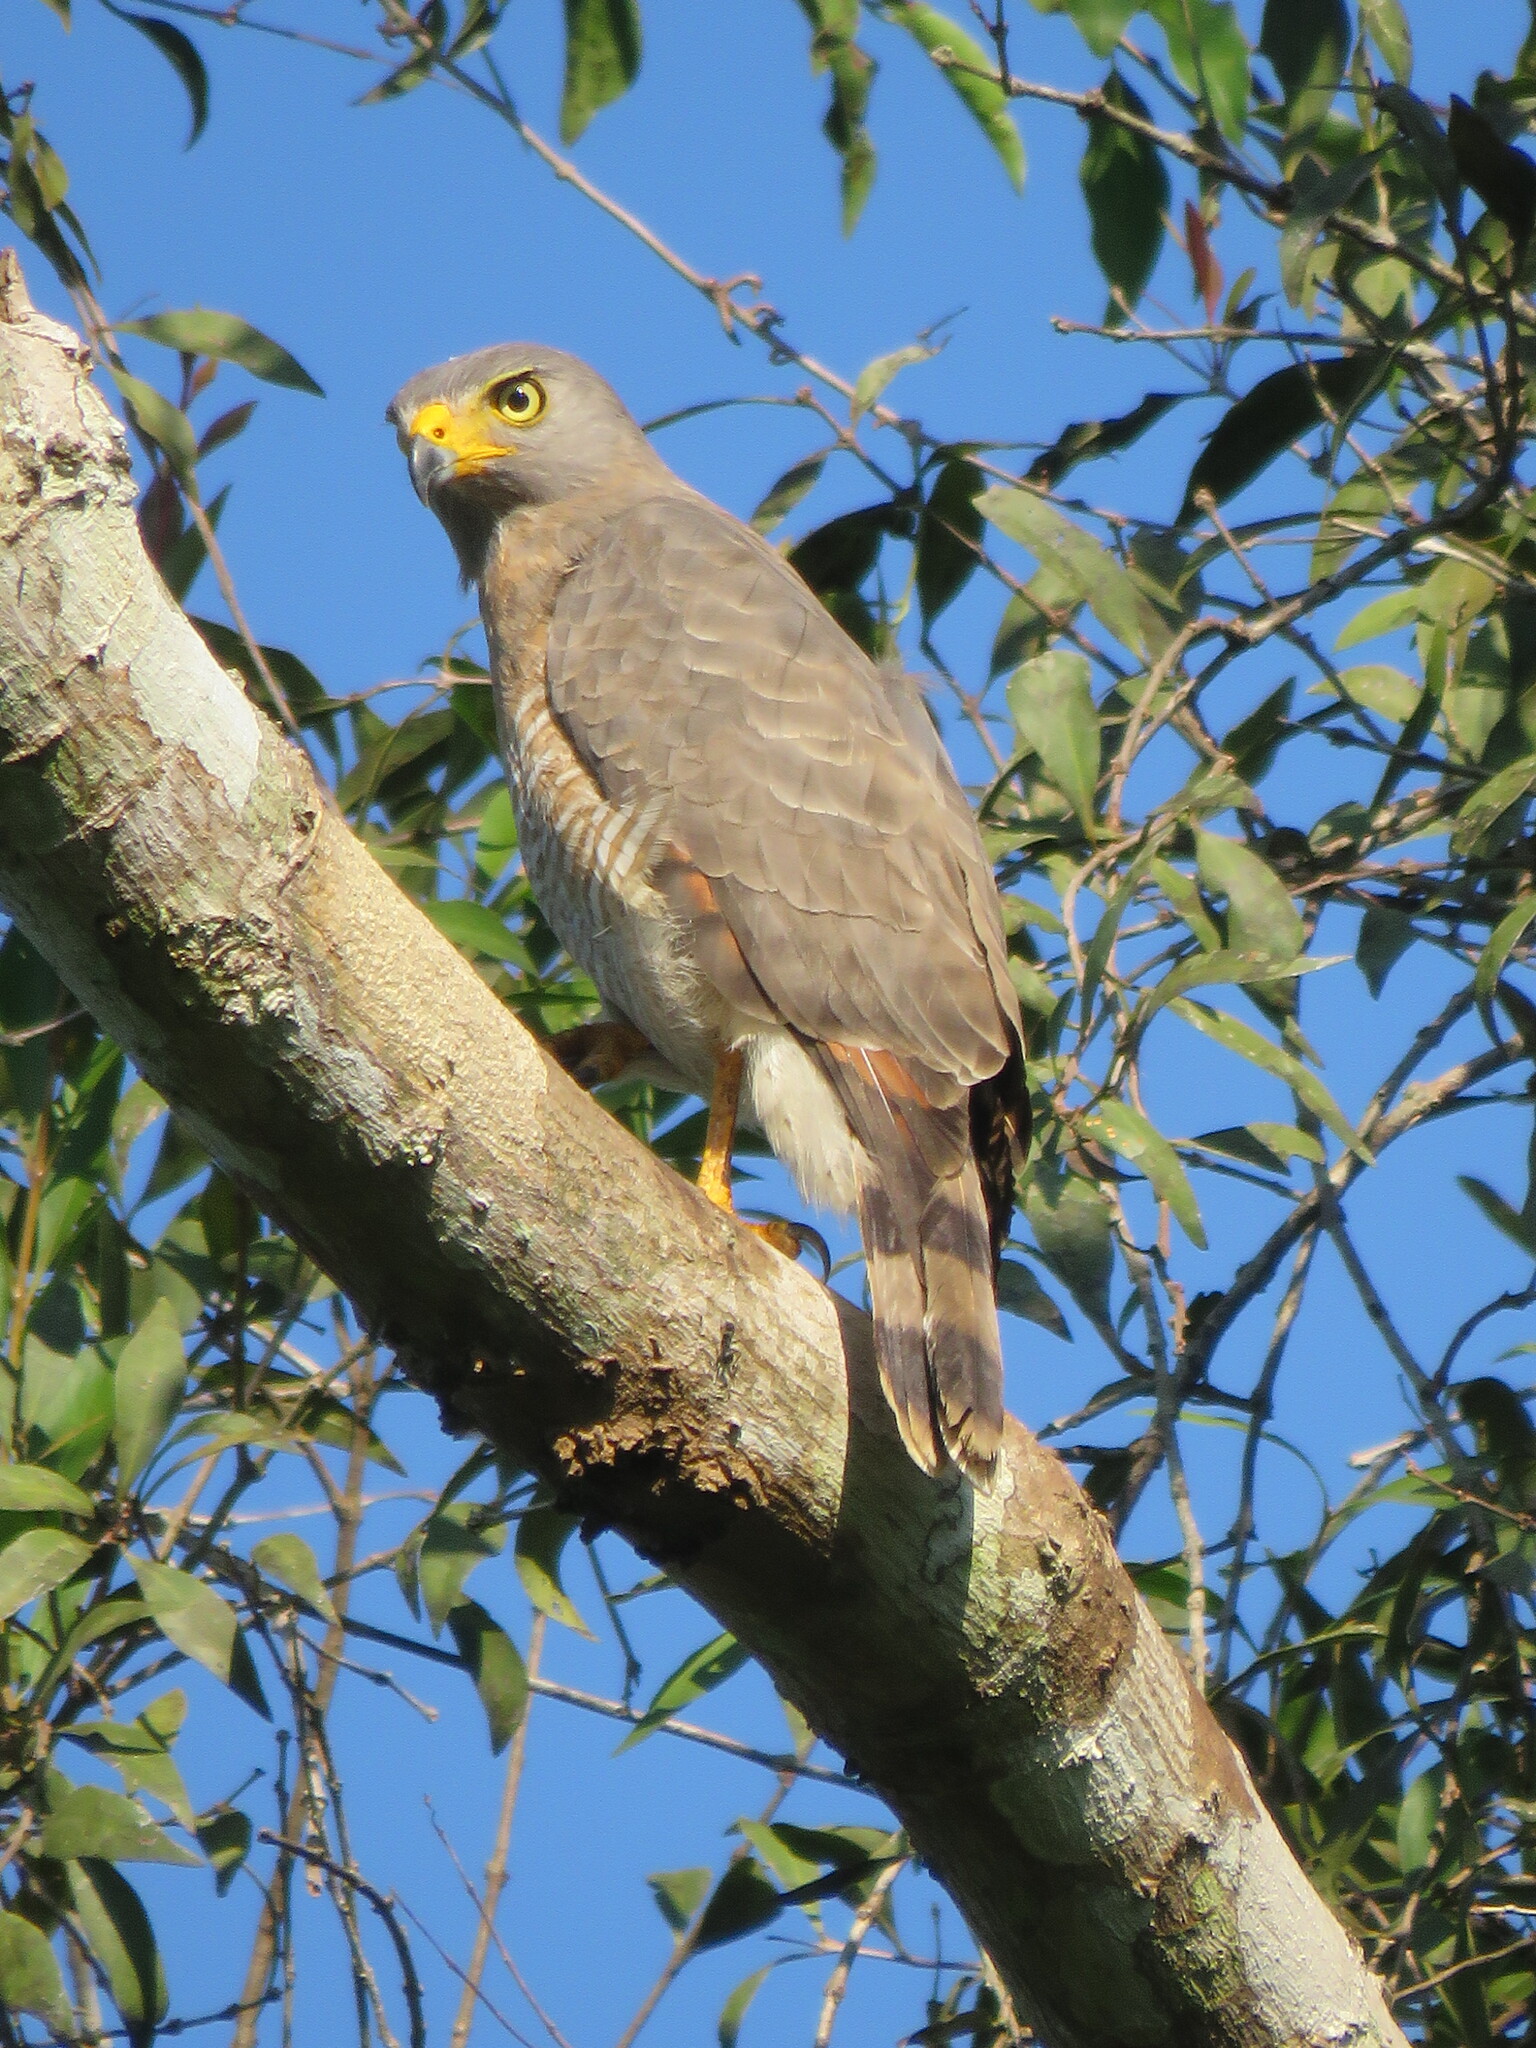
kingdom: Animalia
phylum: Chordata
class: Aves
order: Accipitriformes
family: Accipitridae
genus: Rupornis
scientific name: Rupornis magnirostris
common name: Roadside hawk
